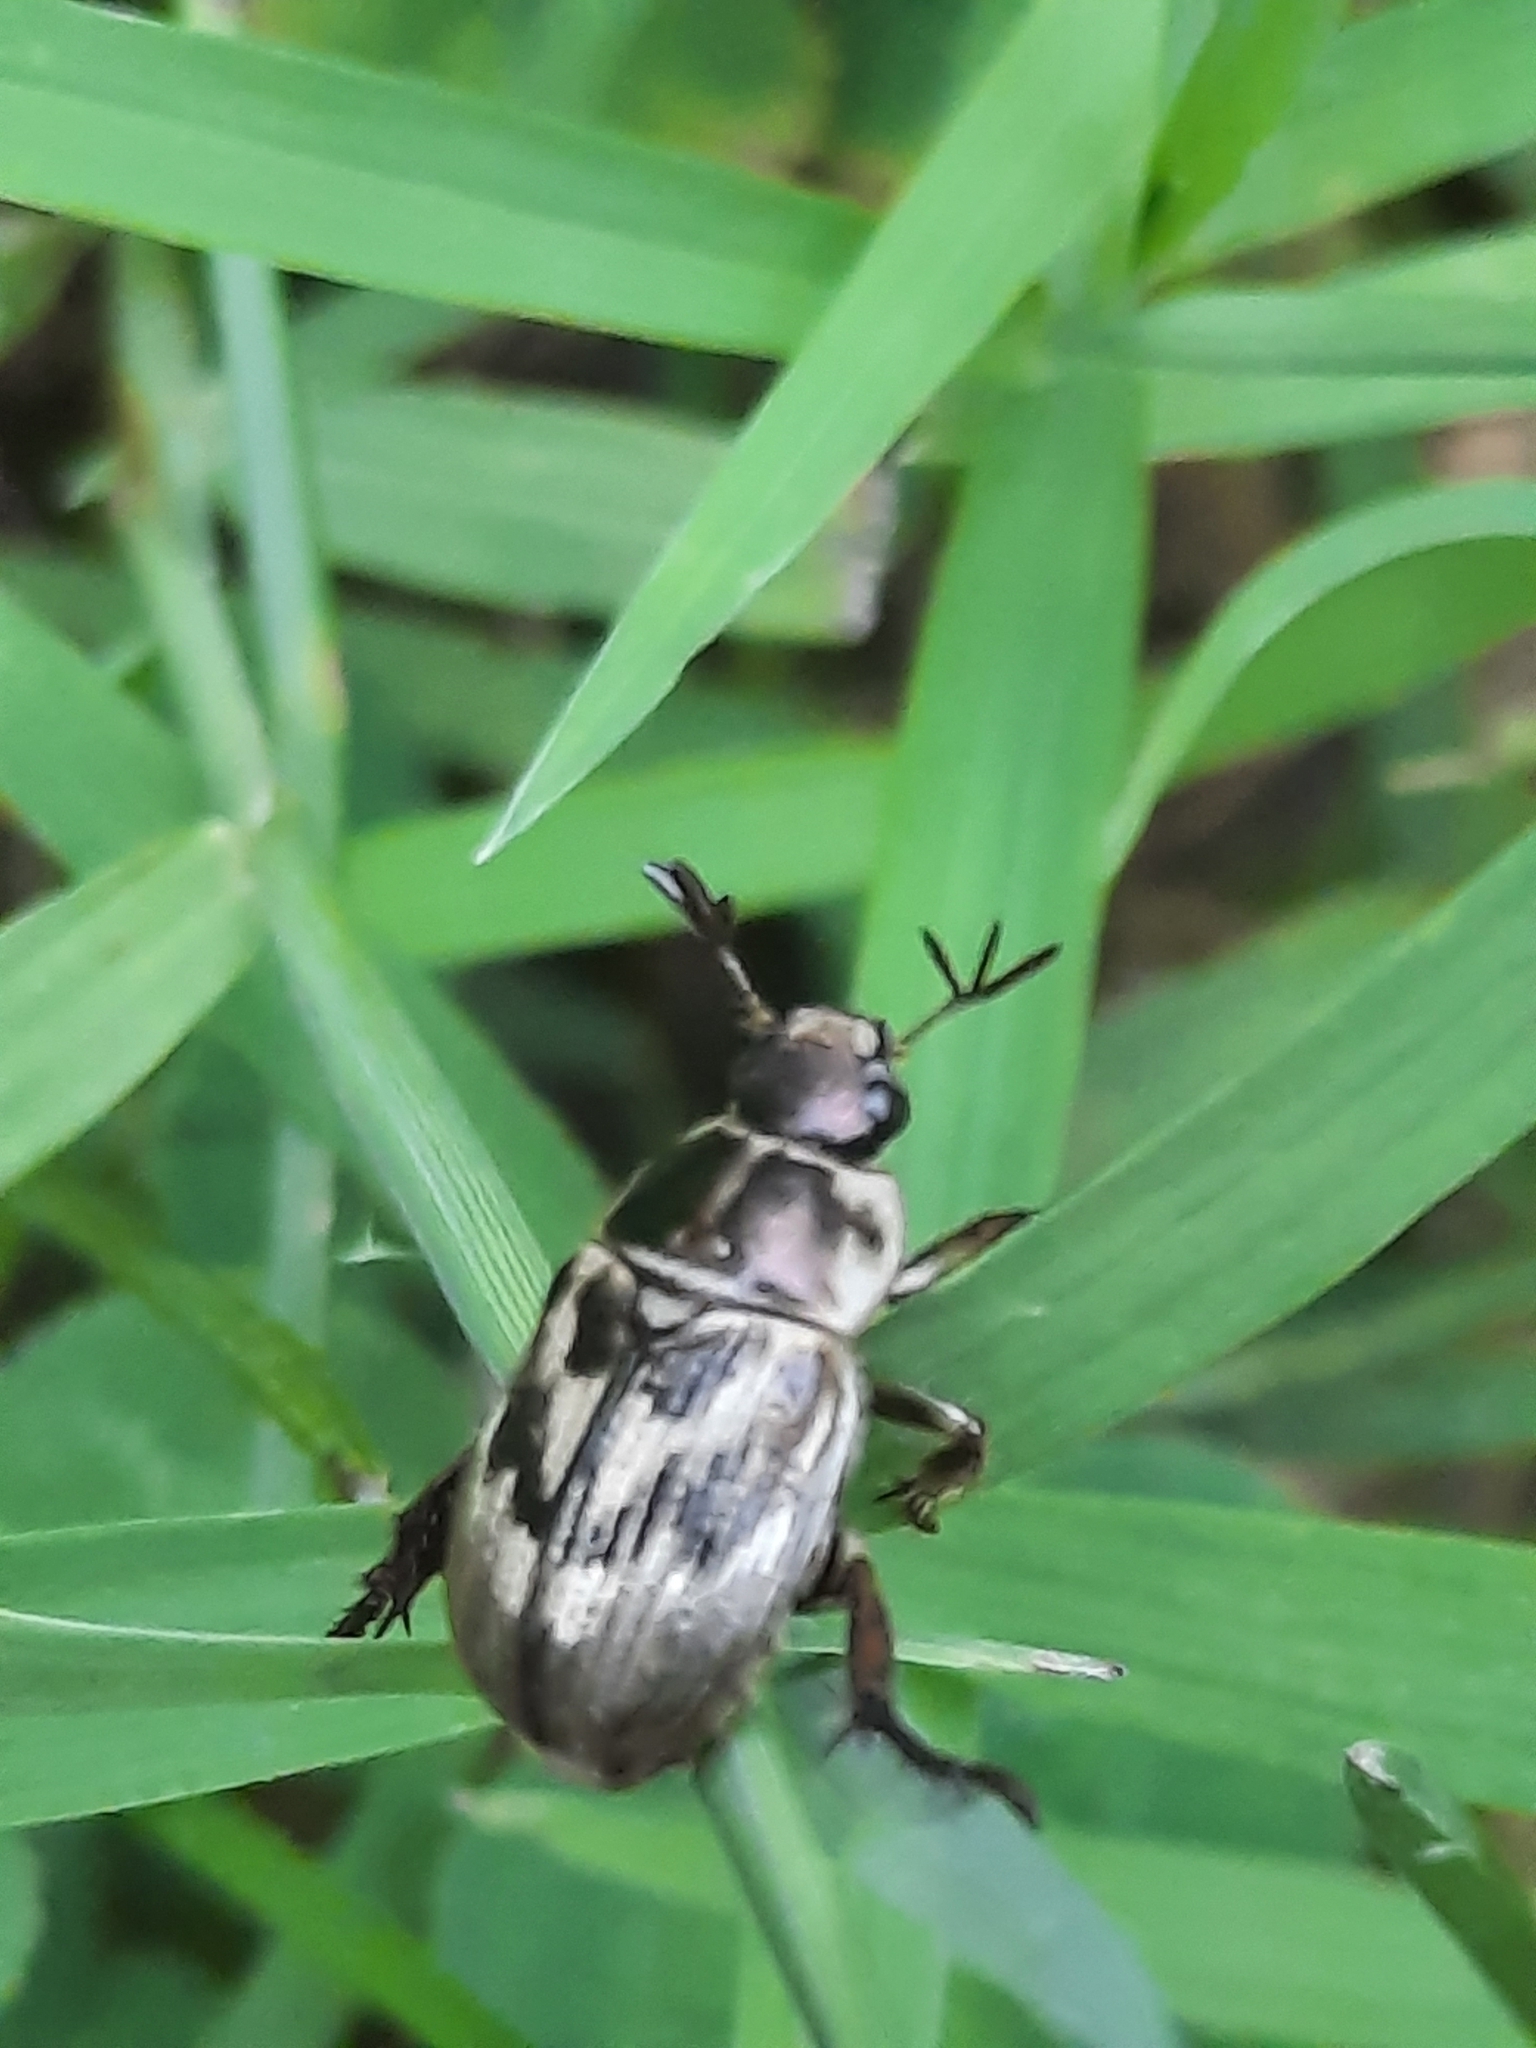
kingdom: Animalia
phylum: Arthropoda
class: Insecta
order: Coleoptera
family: Scarabaeidae
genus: Exomala
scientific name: Exomala orientalis
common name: Oriental beetle
